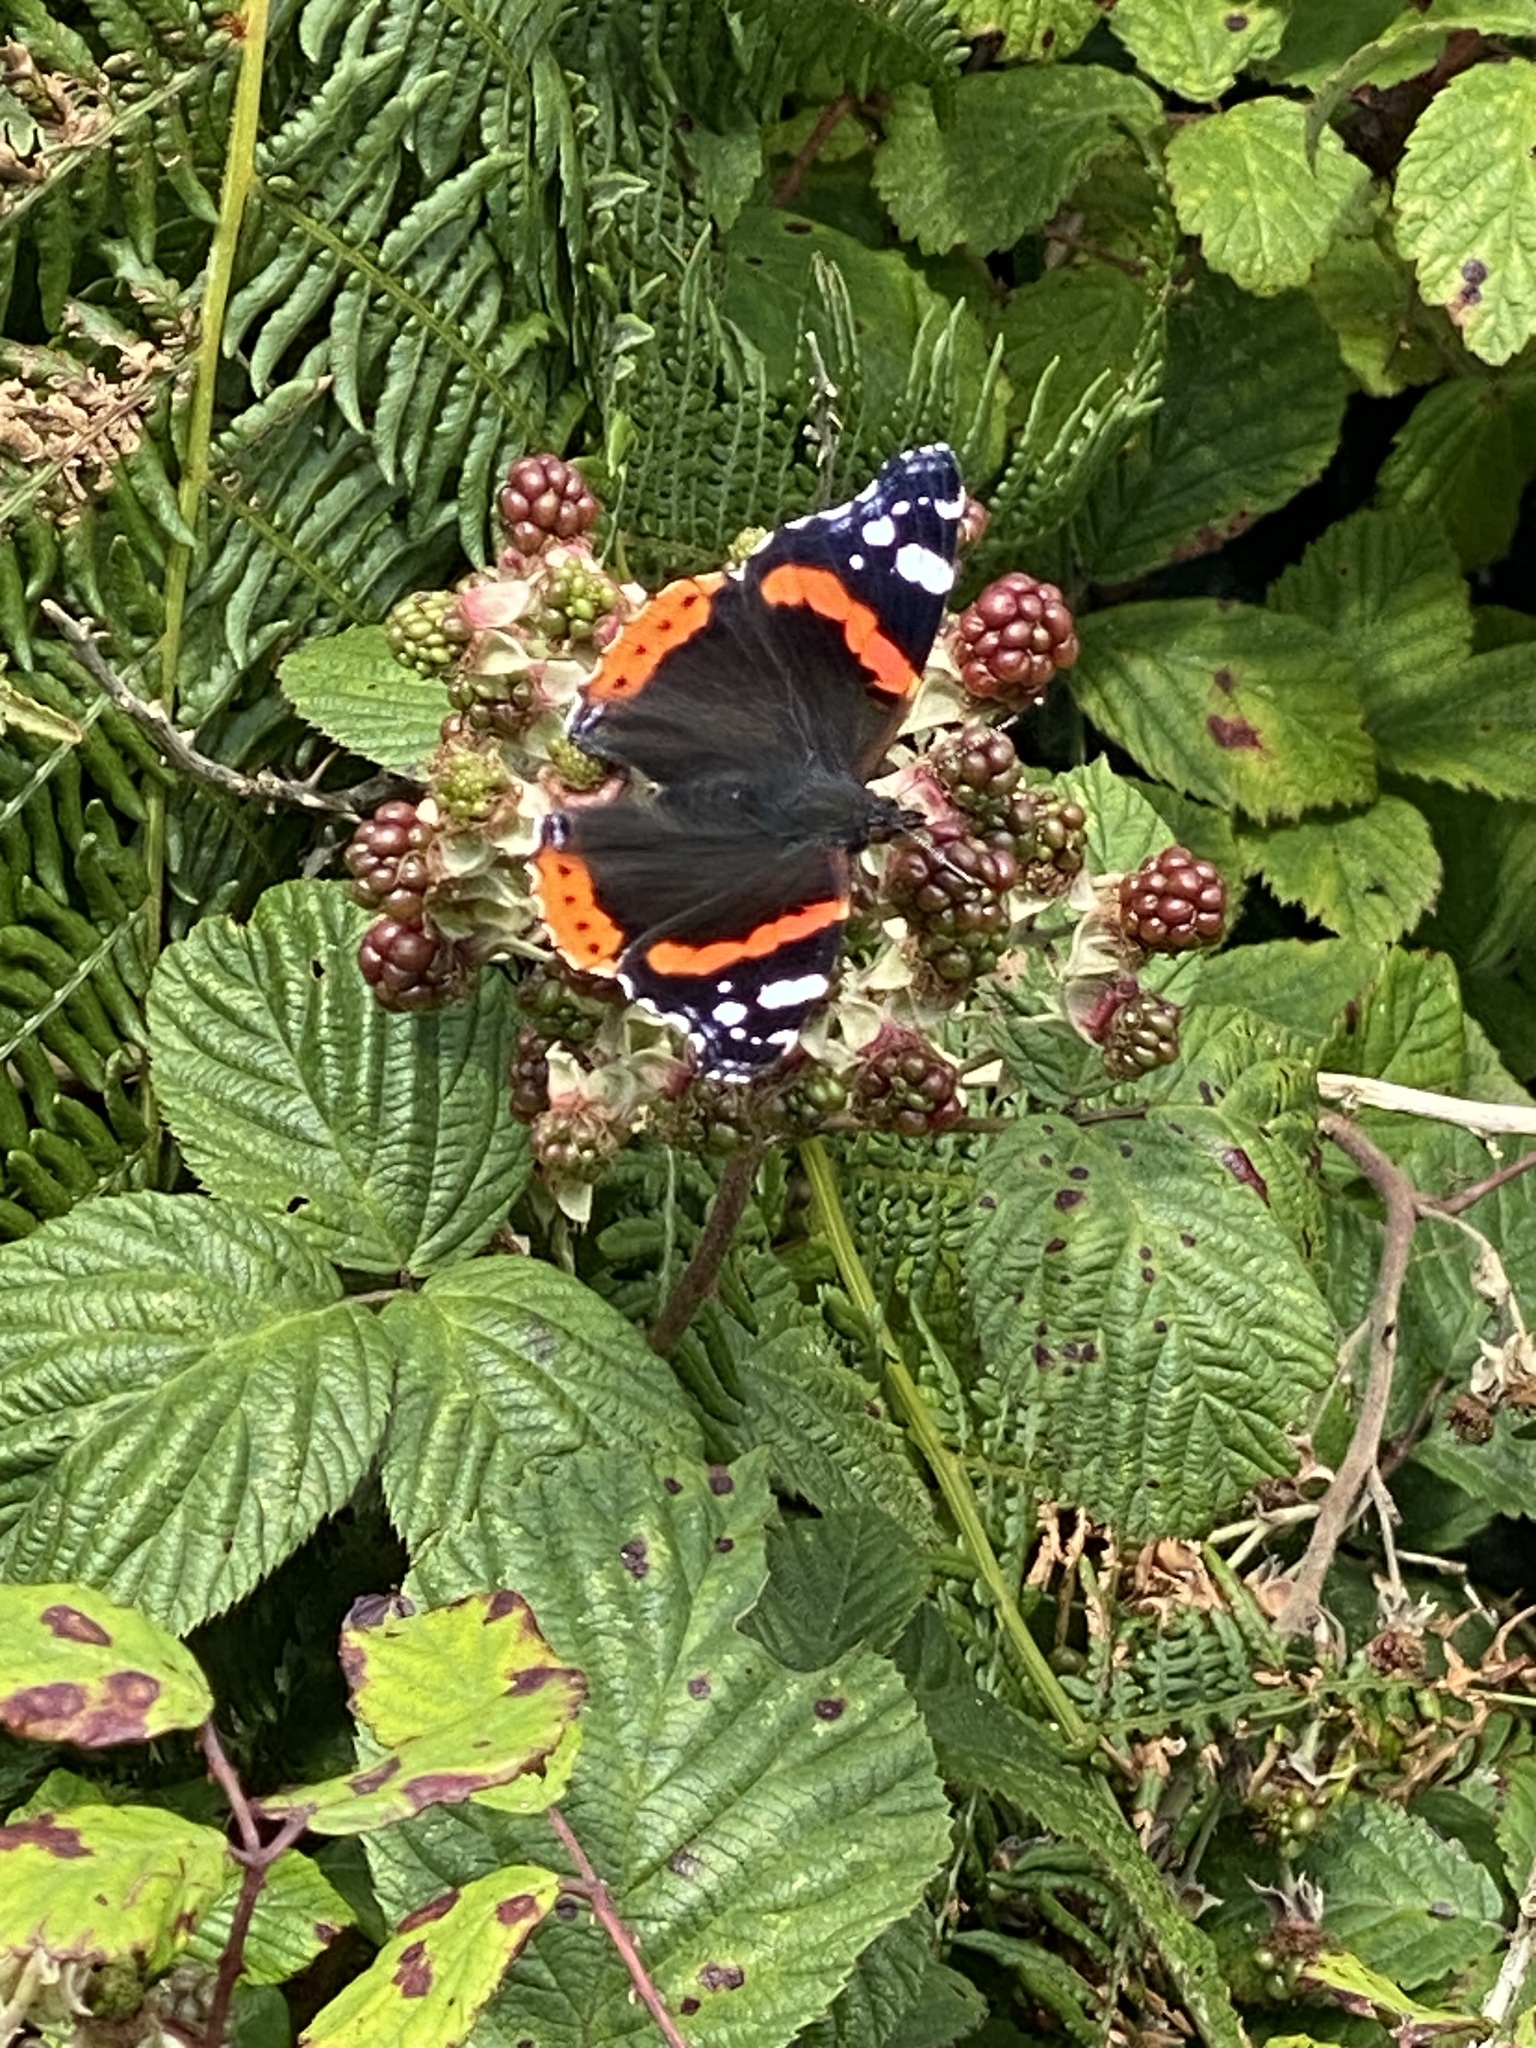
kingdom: Animalia
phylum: Arthropoda
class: Insecta
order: Lepidoptera
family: Nymphalidae
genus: Vanessa
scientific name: Vanessa atalanta
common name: Red admiral
